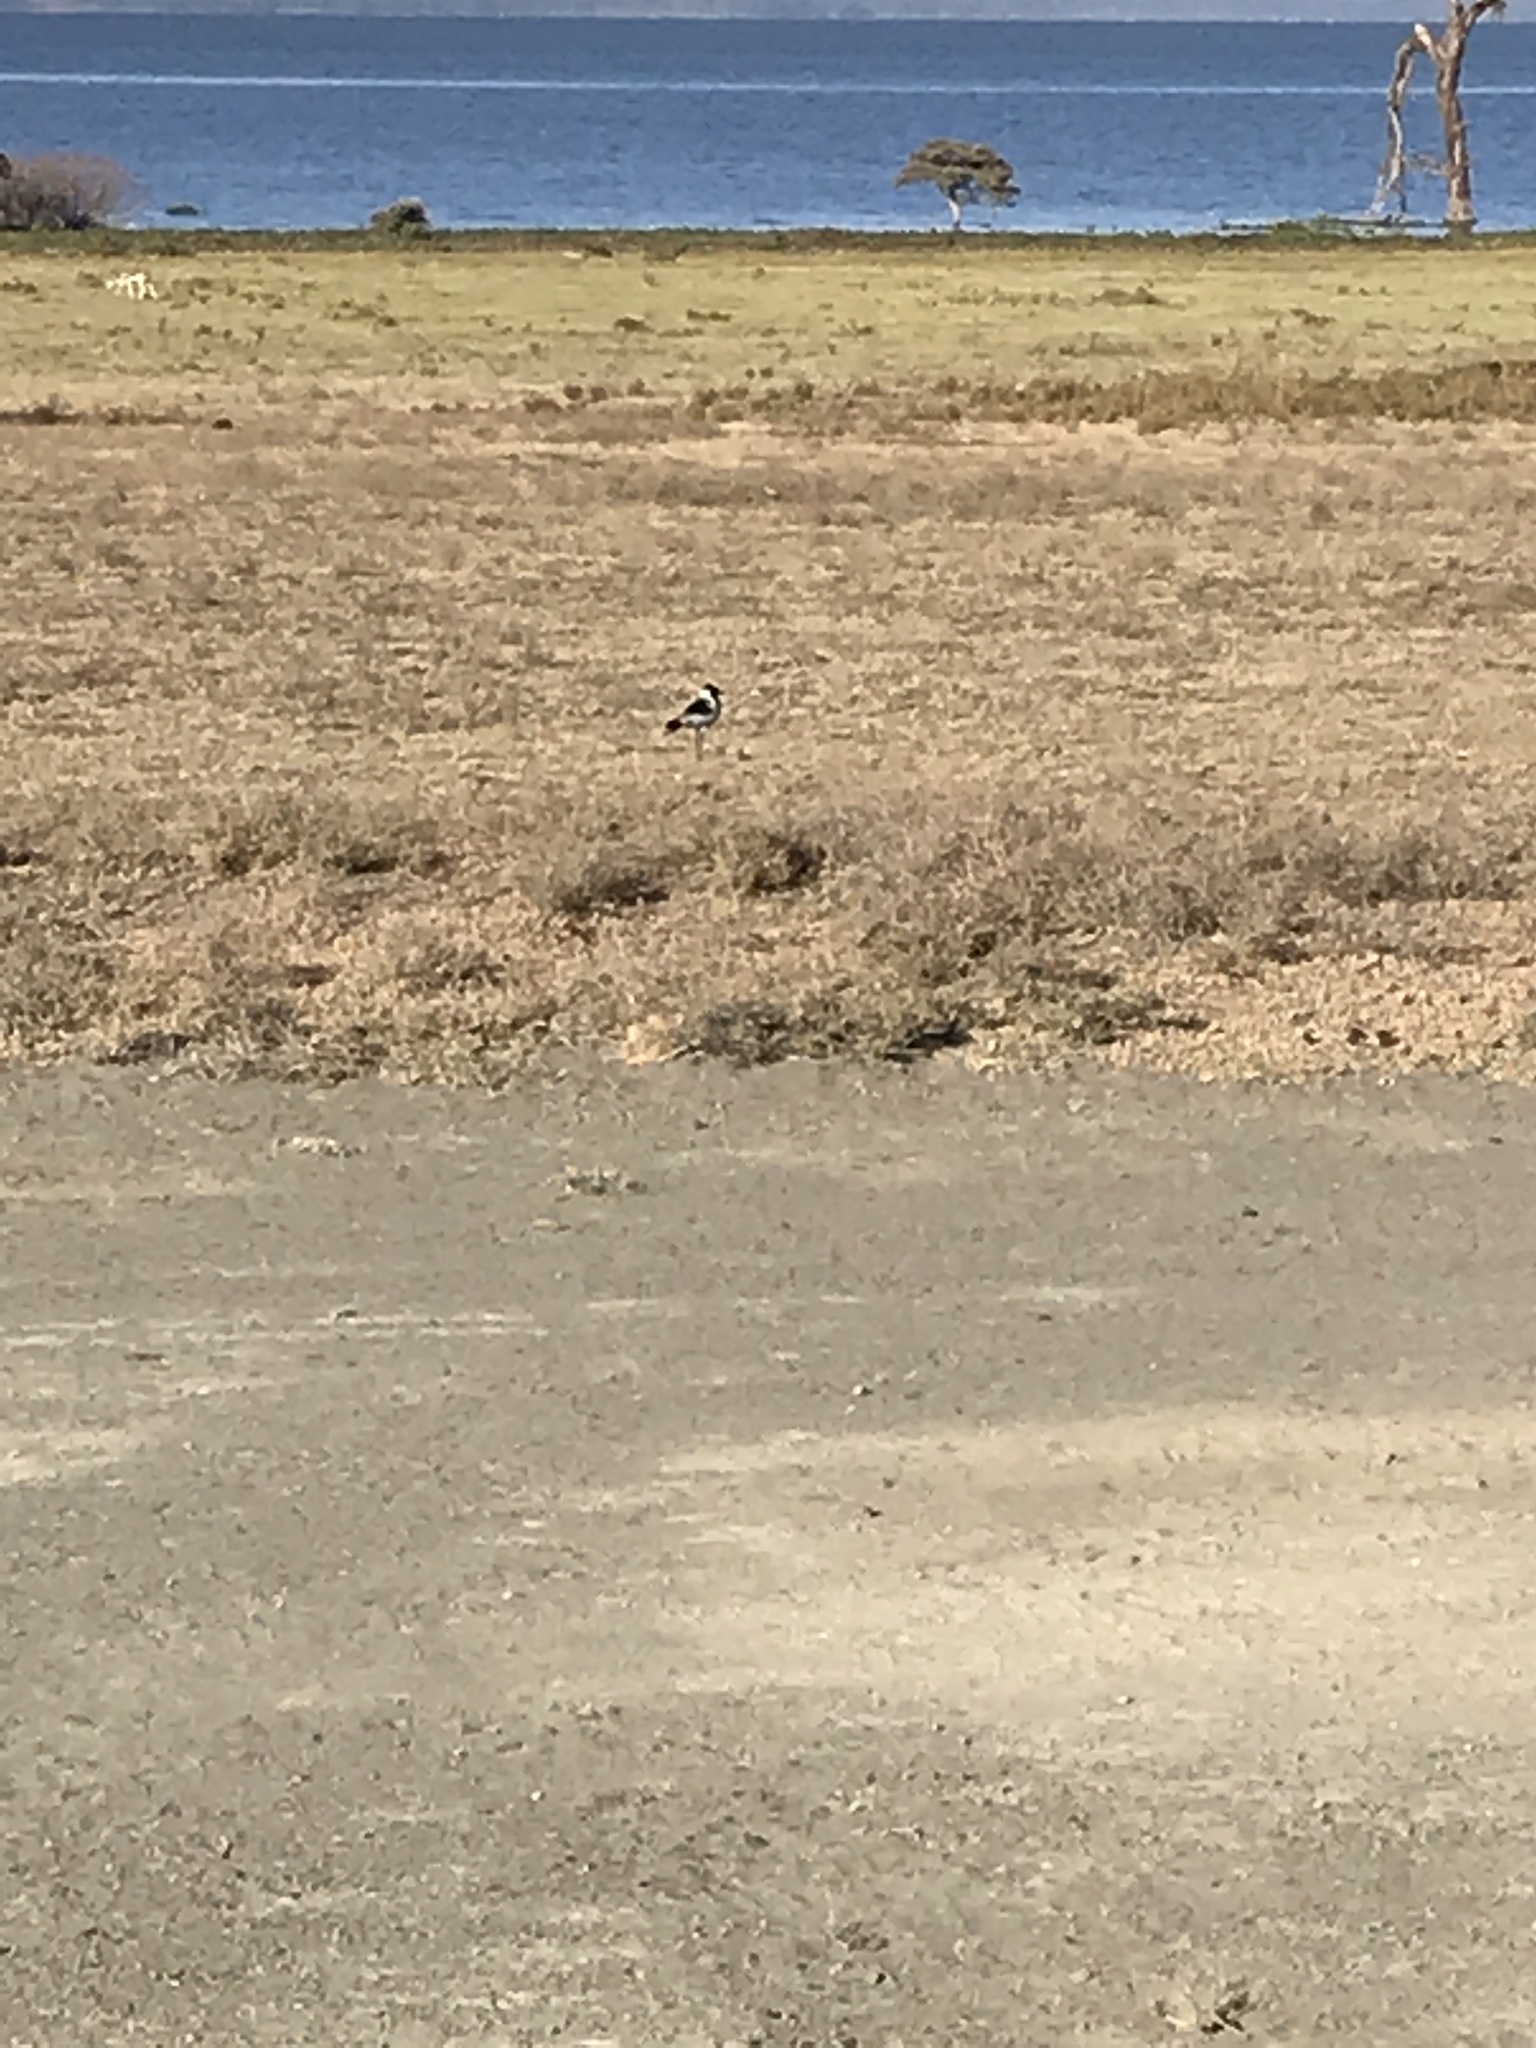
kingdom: Animalia
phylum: Chordata
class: Aves
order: Charadriiformes
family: Charadriidae
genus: Vanellus
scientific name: Vanellus spinosus
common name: Spur-winged lapwing
